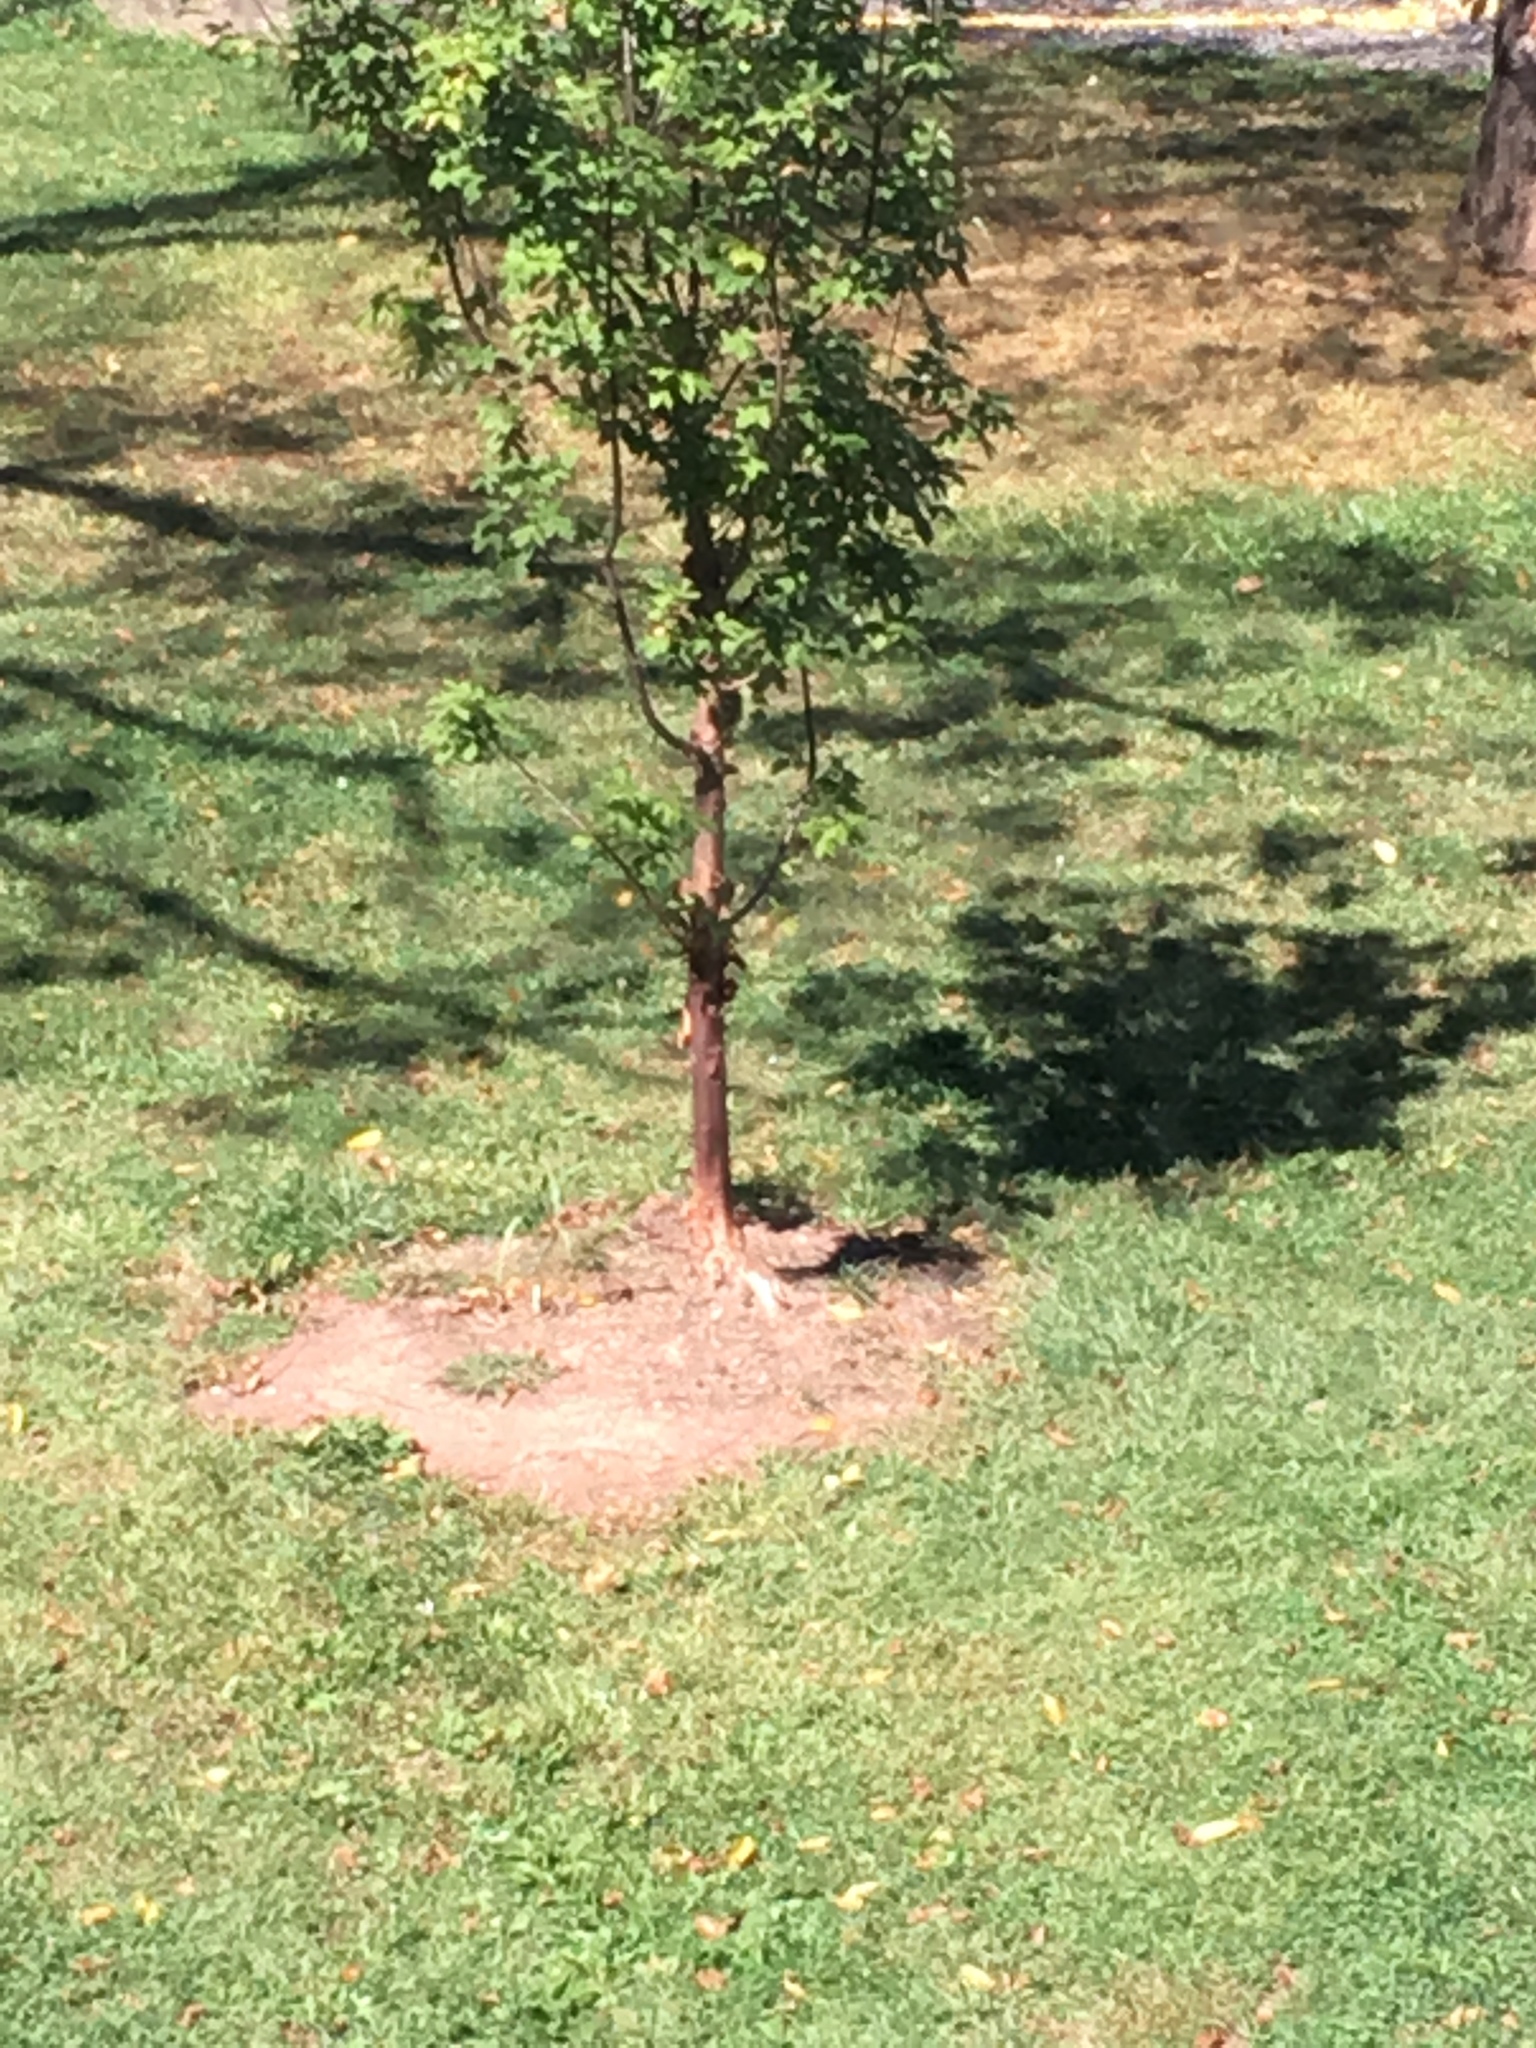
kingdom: Animalia
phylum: Chordata
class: Aves
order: Passeriformes
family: Corvidae
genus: Cyanocitta
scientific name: Cyanocitta cristata
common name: Blue jay
